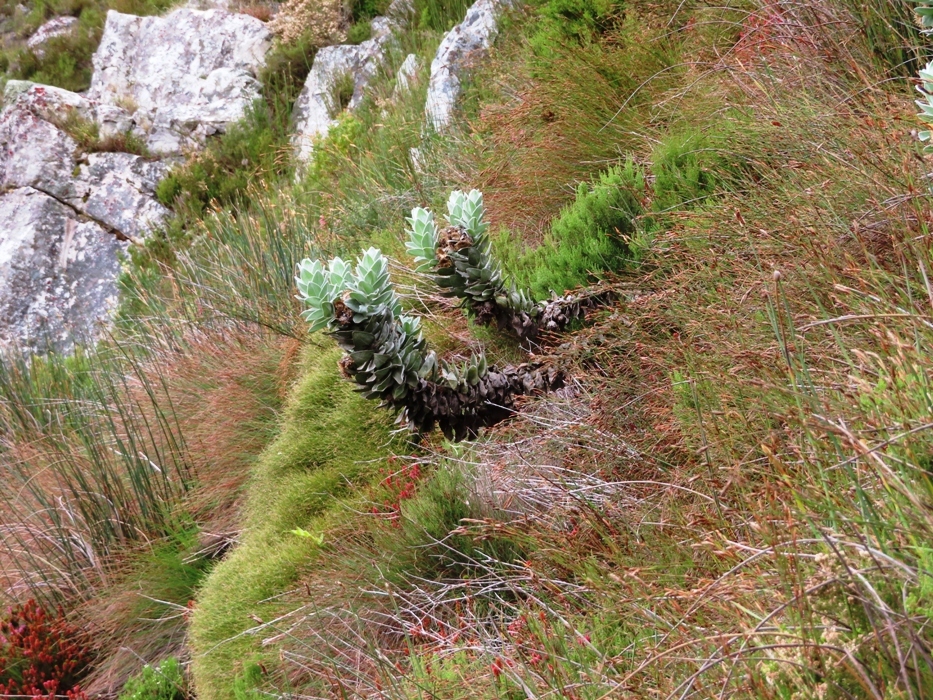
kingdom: Plantae
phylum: Tracheophyta
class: Magnoliopsida
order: Asterales
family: Asteraceae
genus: Syncarpha
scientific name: Syncarpha eximia
